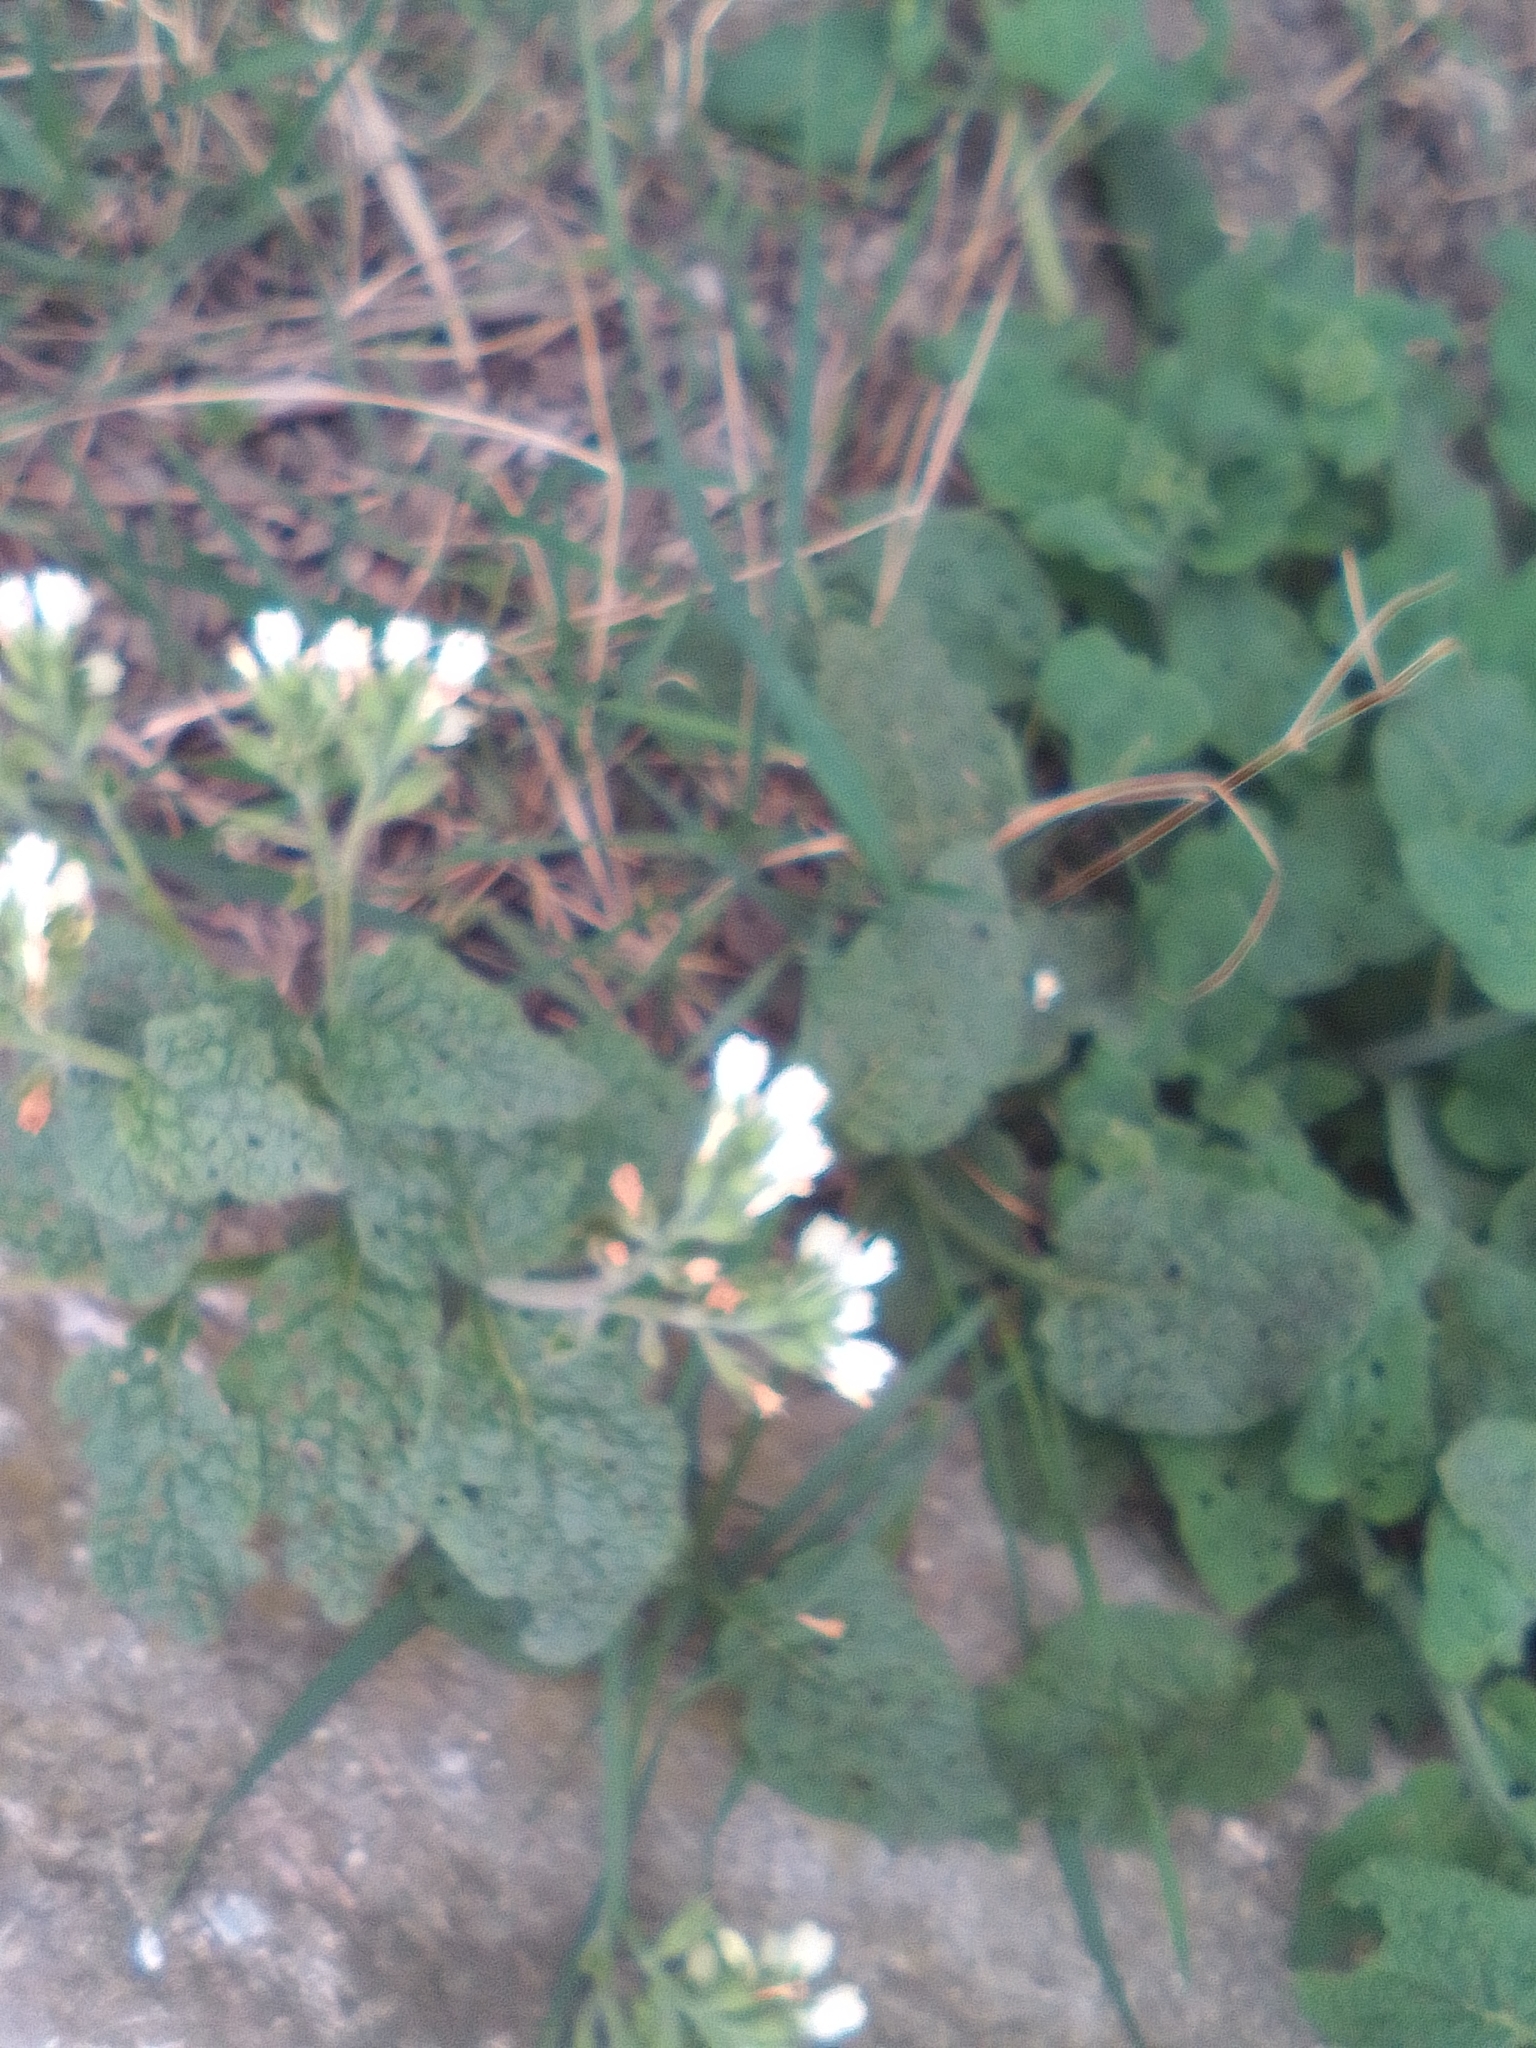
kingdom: Plantae
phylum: Tracheophyta
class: Magnoliopsida
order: Boraginales
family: Boraginaceae
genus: Symphytum
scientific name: Symphytum tauricum
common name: Crimean comfrey
